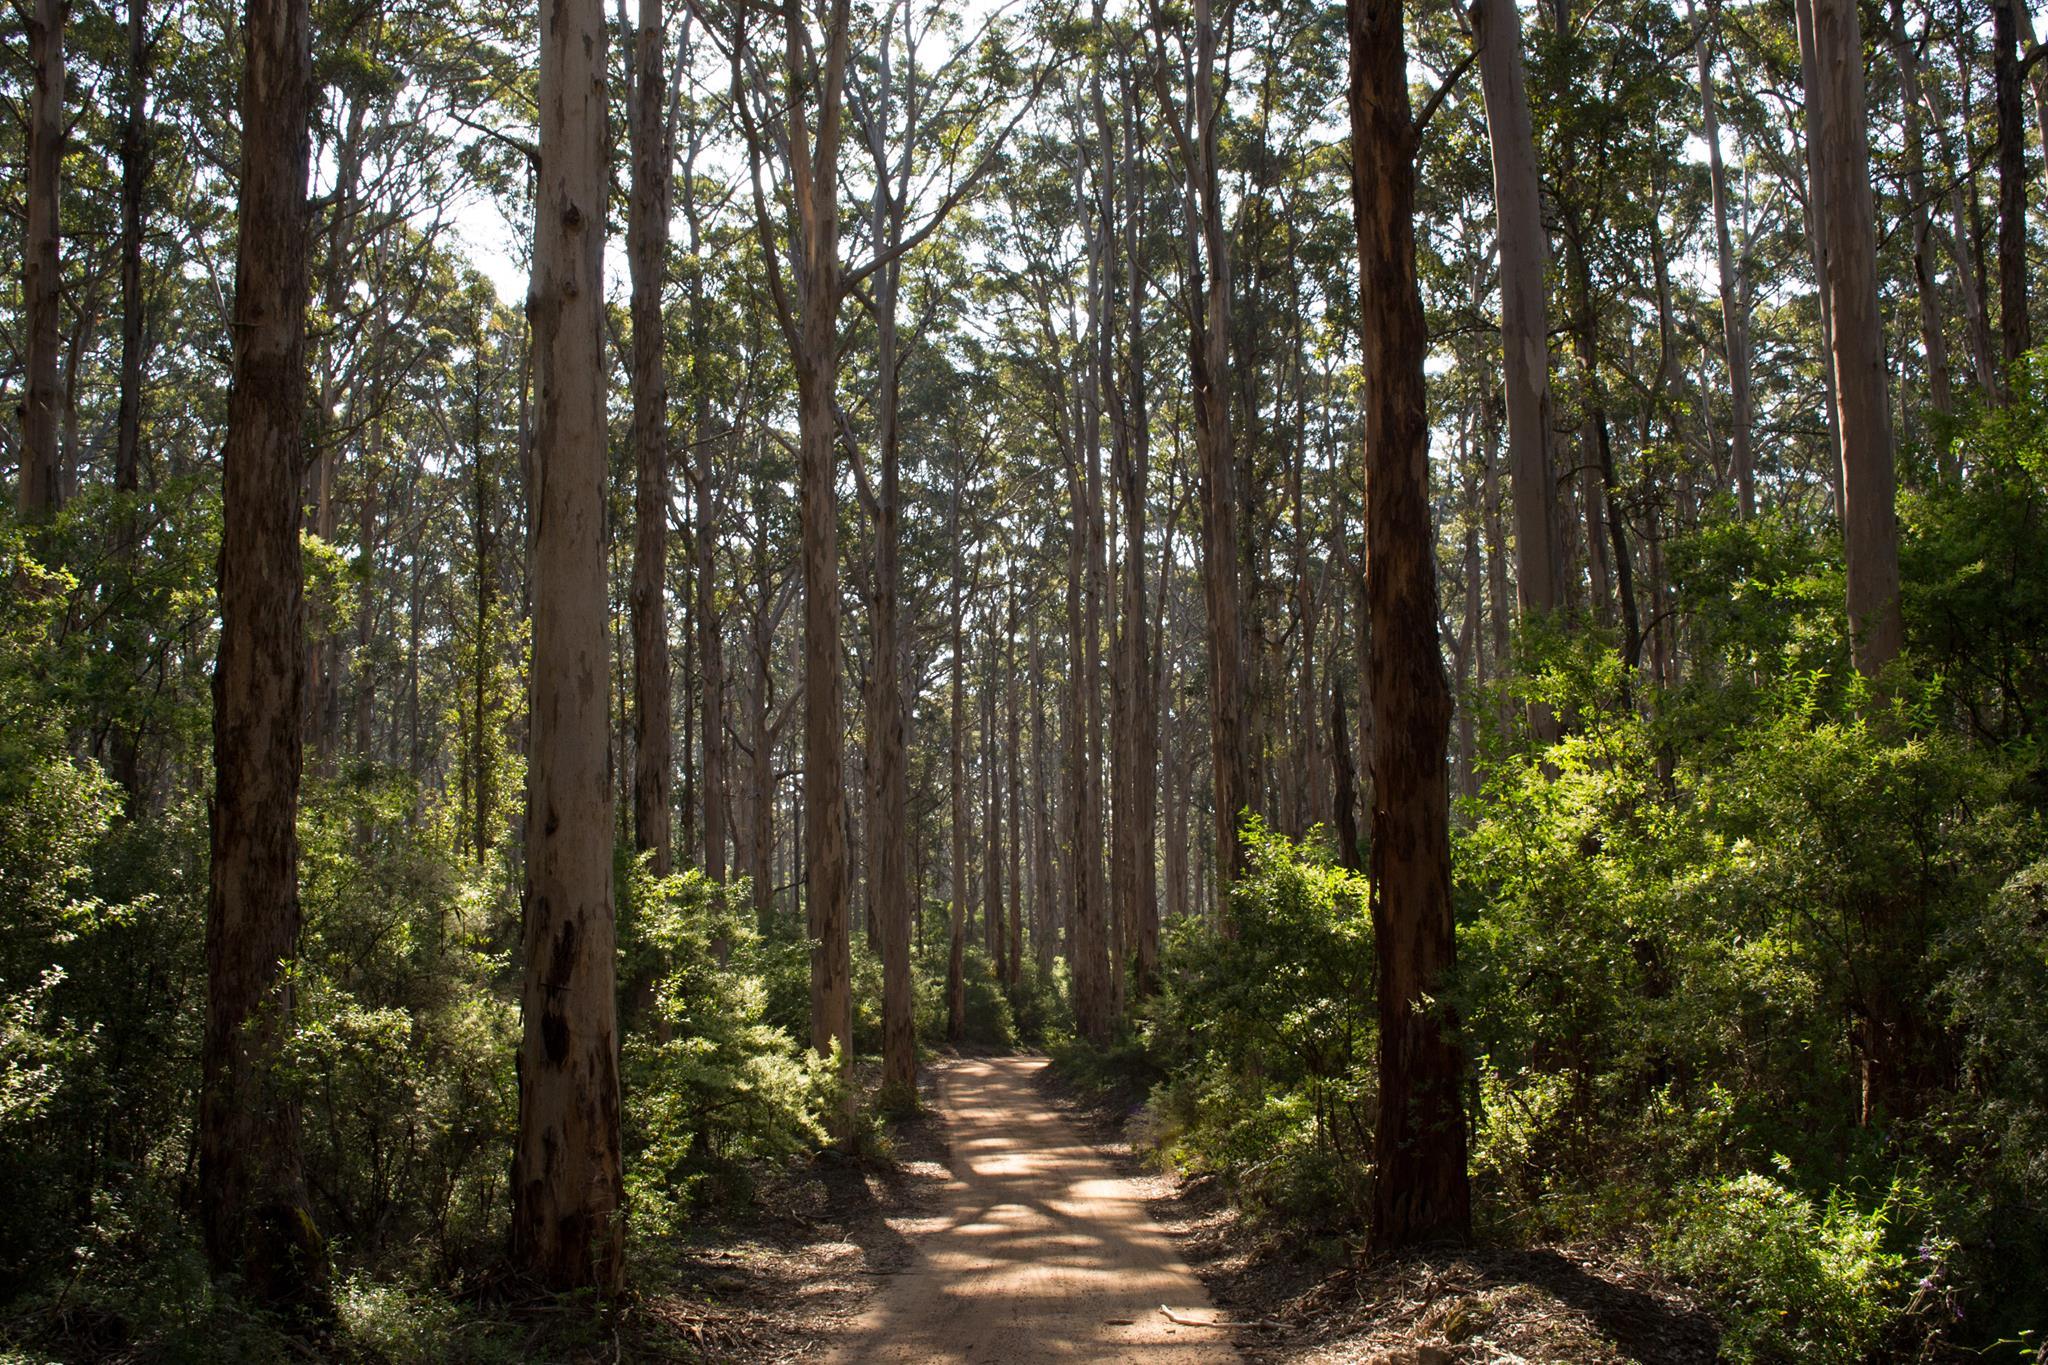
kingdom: Plantae
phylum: Tracheophyta
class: Magnoliopsida
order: Myrtales
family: Myrtaceae
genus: Eucalyptus
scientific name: Eucalyptus diversicolor
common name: Karri
